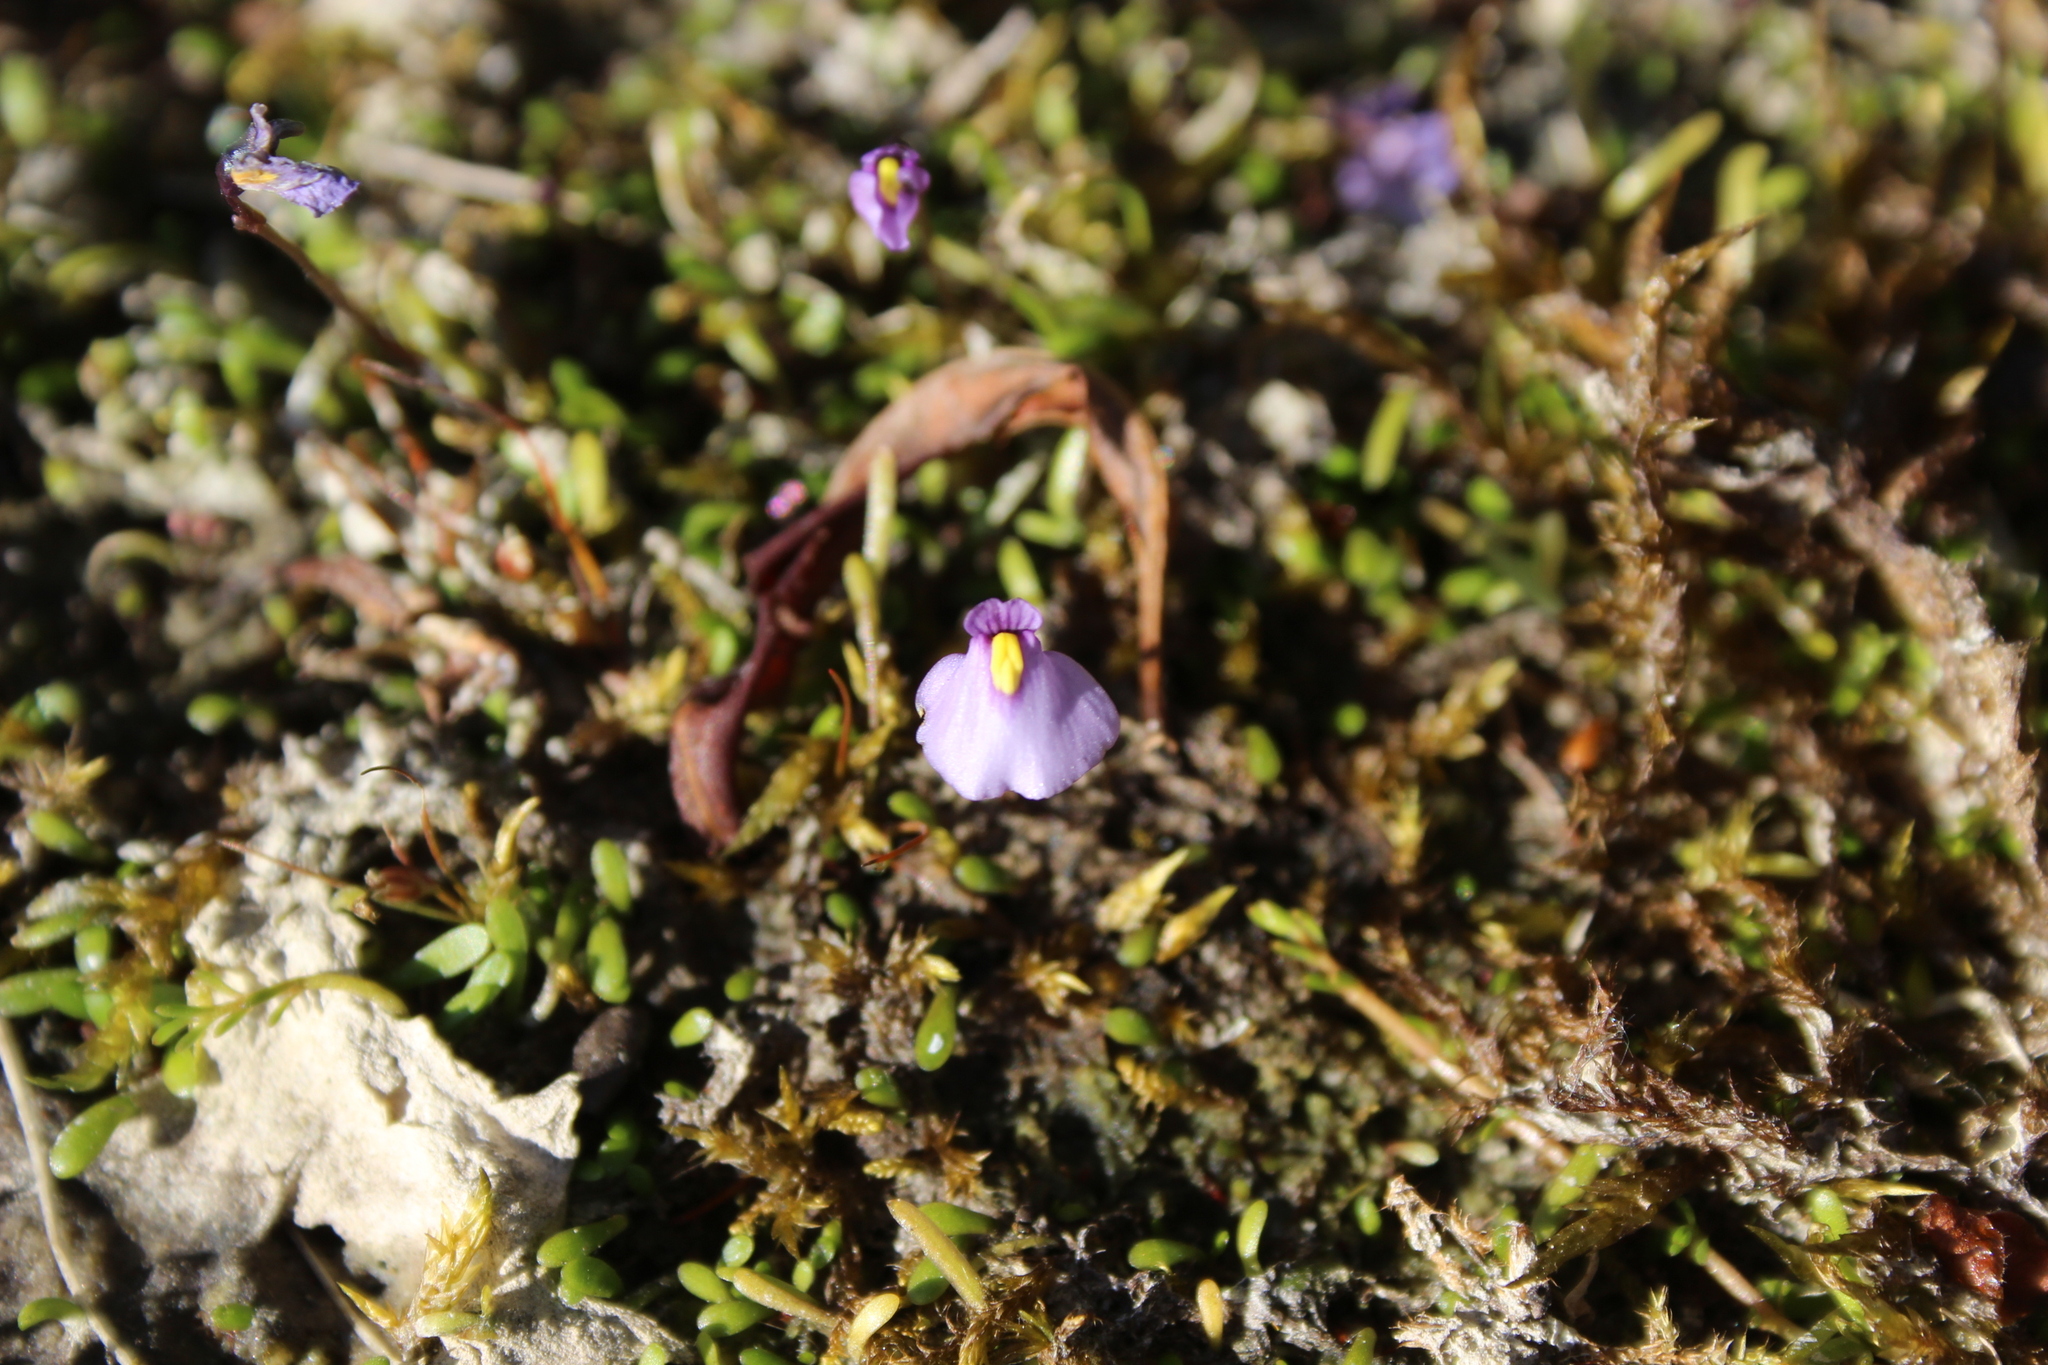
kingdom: Plantae
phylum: Tracheophyta
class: Magnoliopsida
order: Lamiales
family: Lentibulariaceae
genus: Utricularia
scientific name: Utricularia dichotoma
